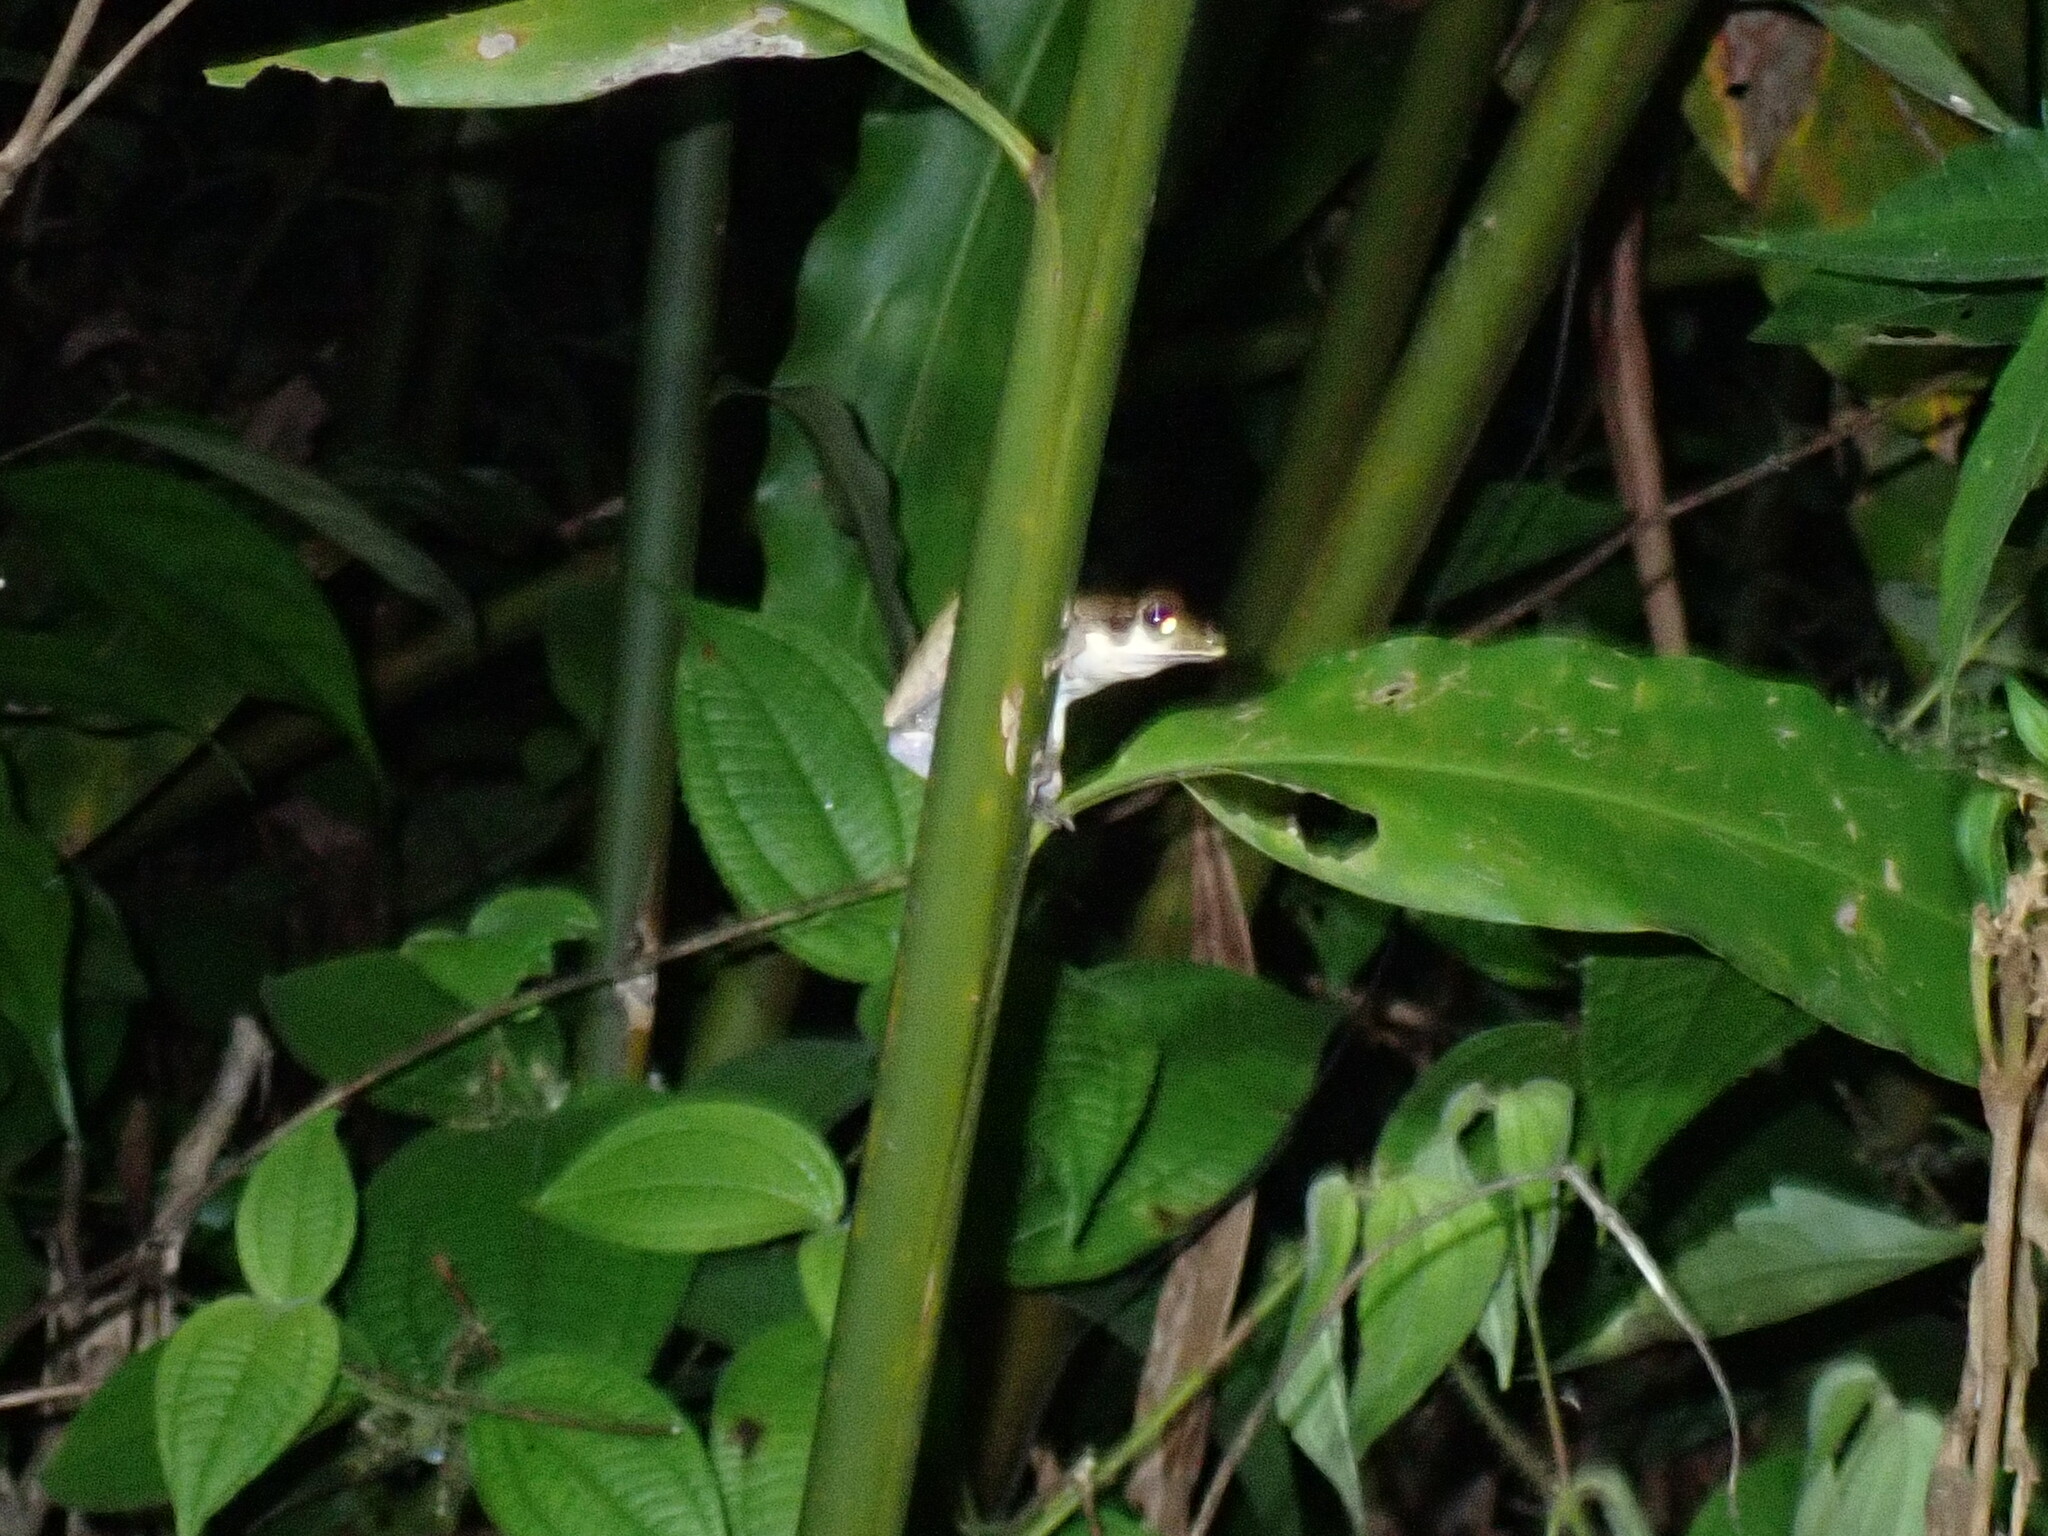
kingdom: Animalia
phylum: Chordata
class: Amphibia
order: Anura
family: Ranidae
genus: Bijurana
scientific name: Bijurana nicobariensis
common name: Cricket frog
